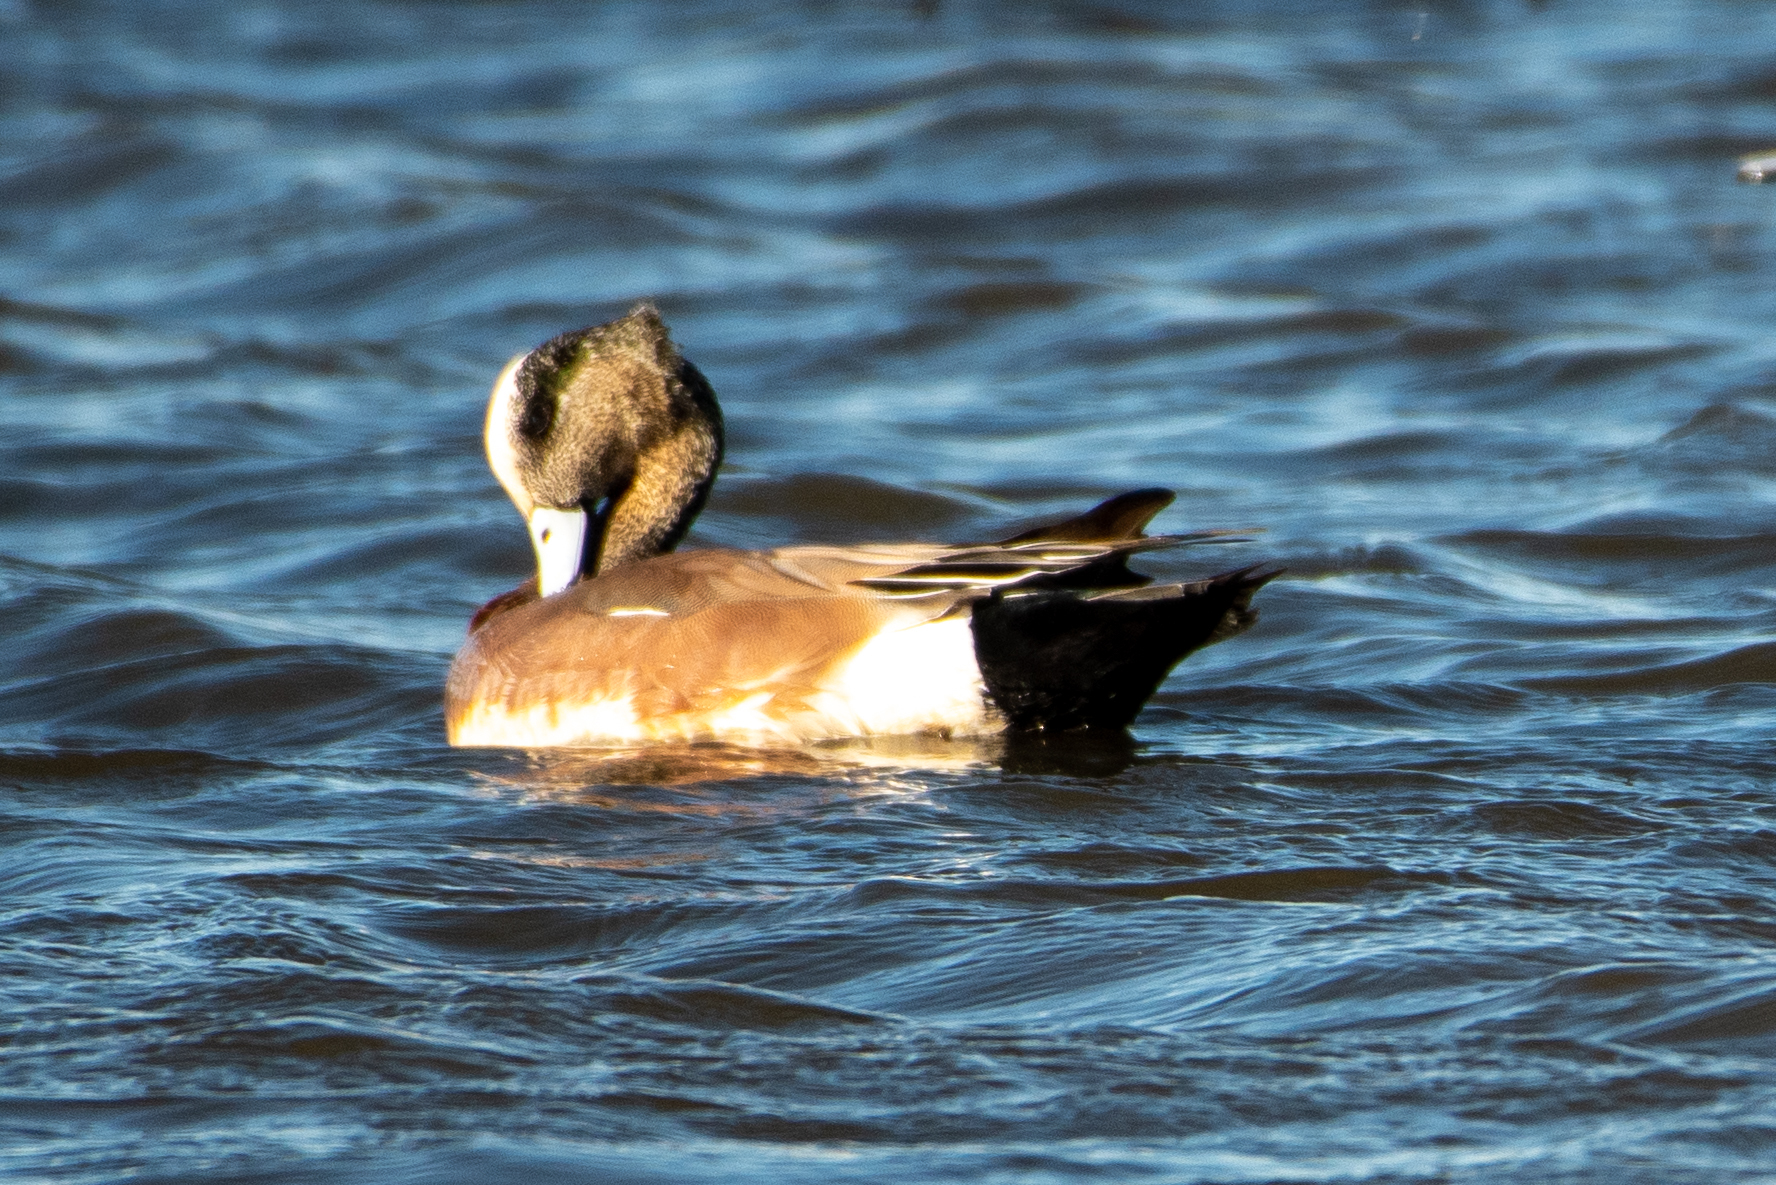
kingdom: Animalia
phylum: Chordata
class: Aves
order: Anseriformes
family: Anatidae
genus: Mareca
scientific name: Mareca americana
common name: American wigeon
